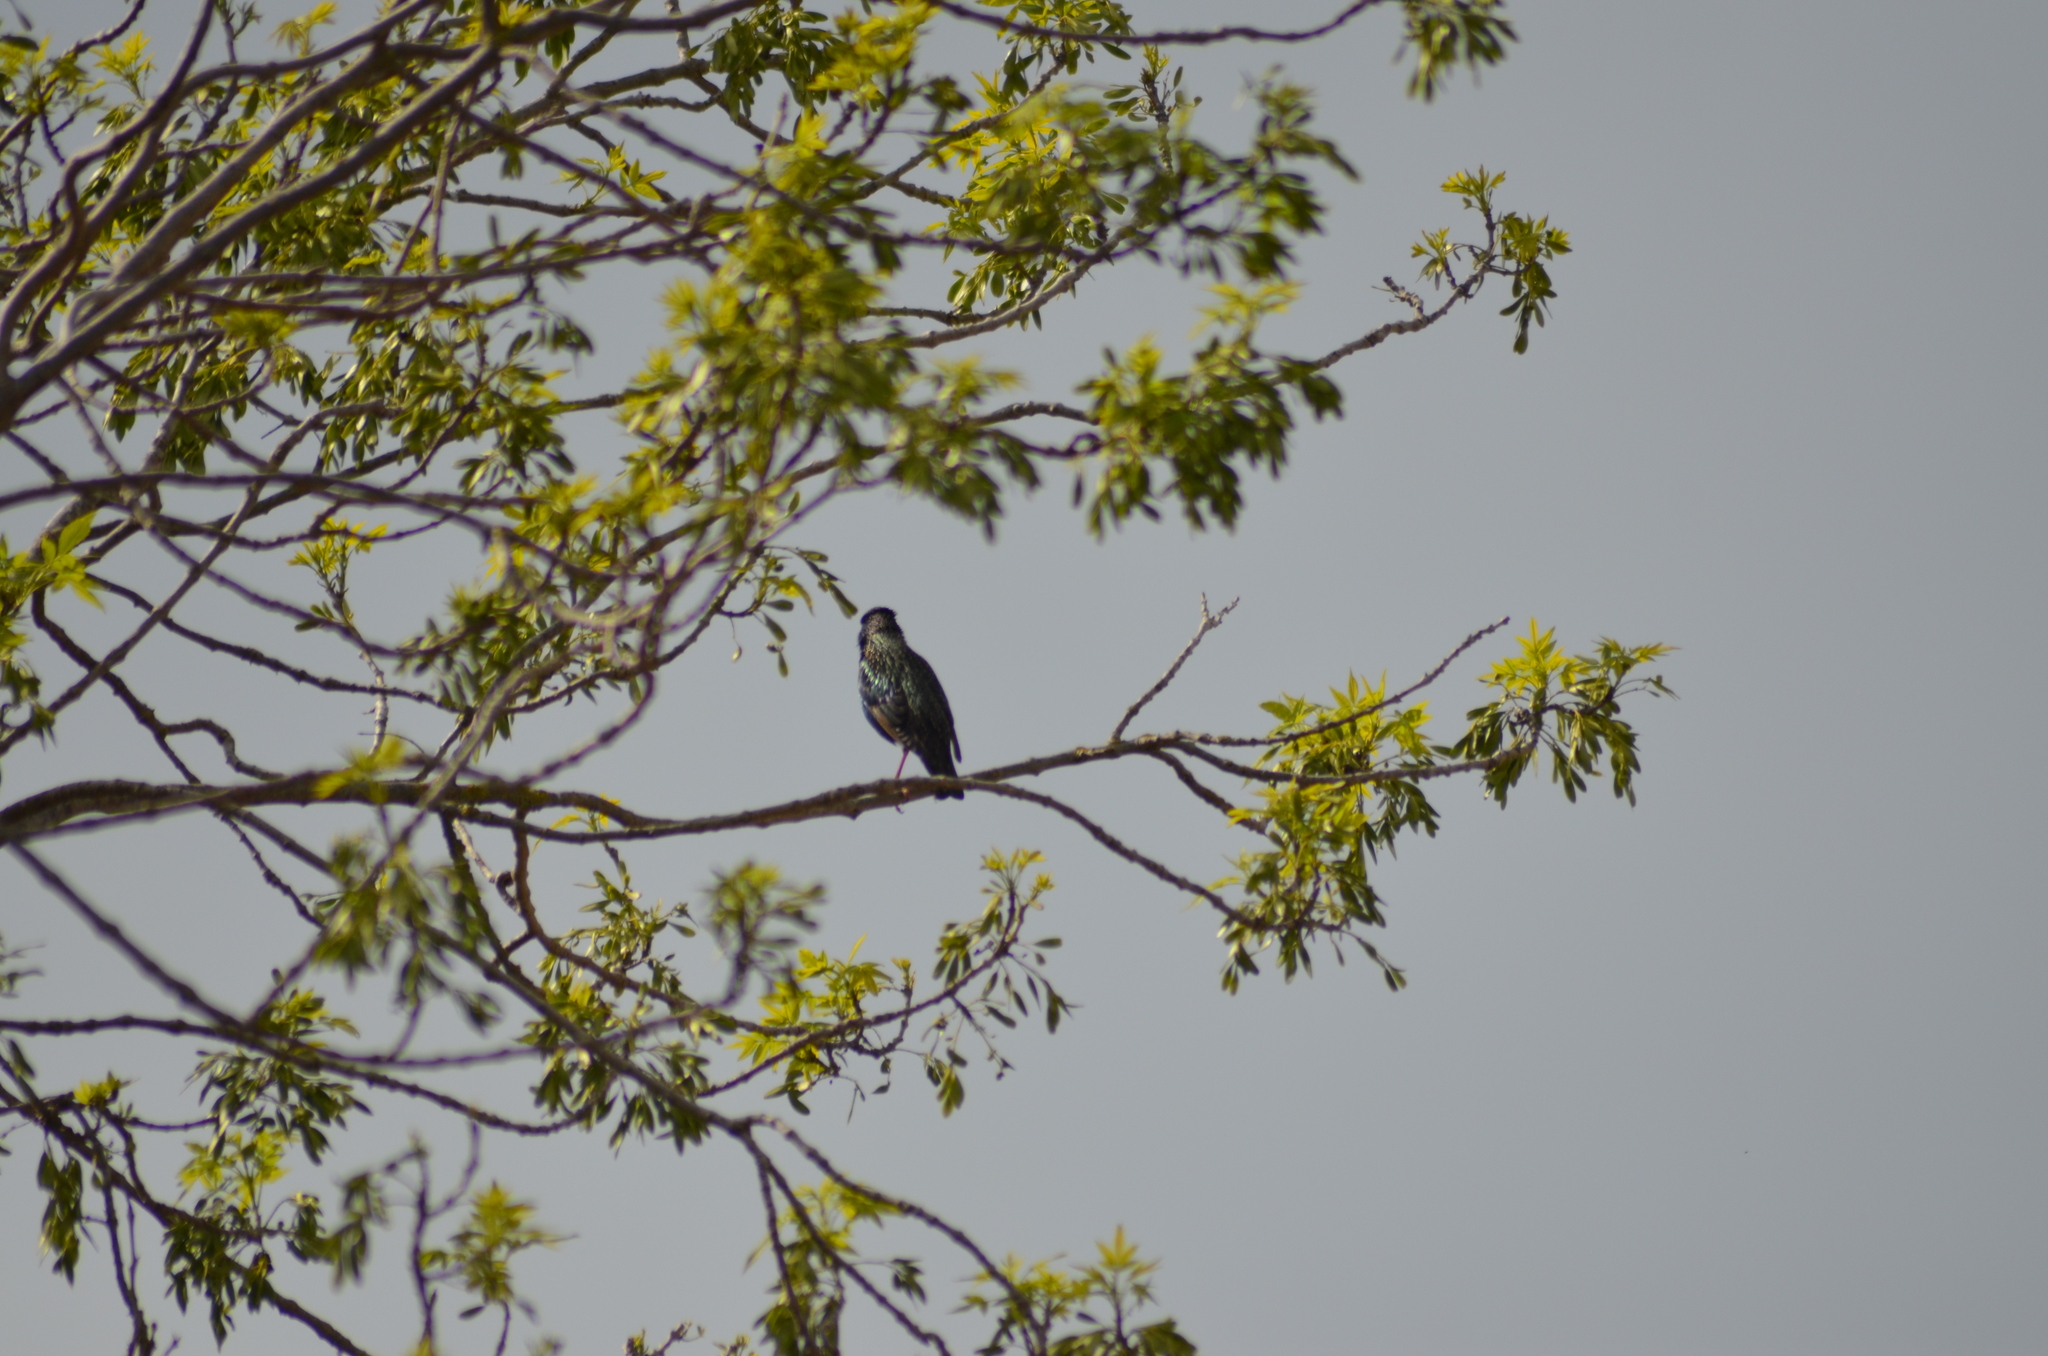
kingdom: Animalia
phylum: Chordata
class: Aves
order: Passeriformes
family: Sturnidae
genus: Sturnus
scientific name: Sturnus vulgaris
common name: Common starling
